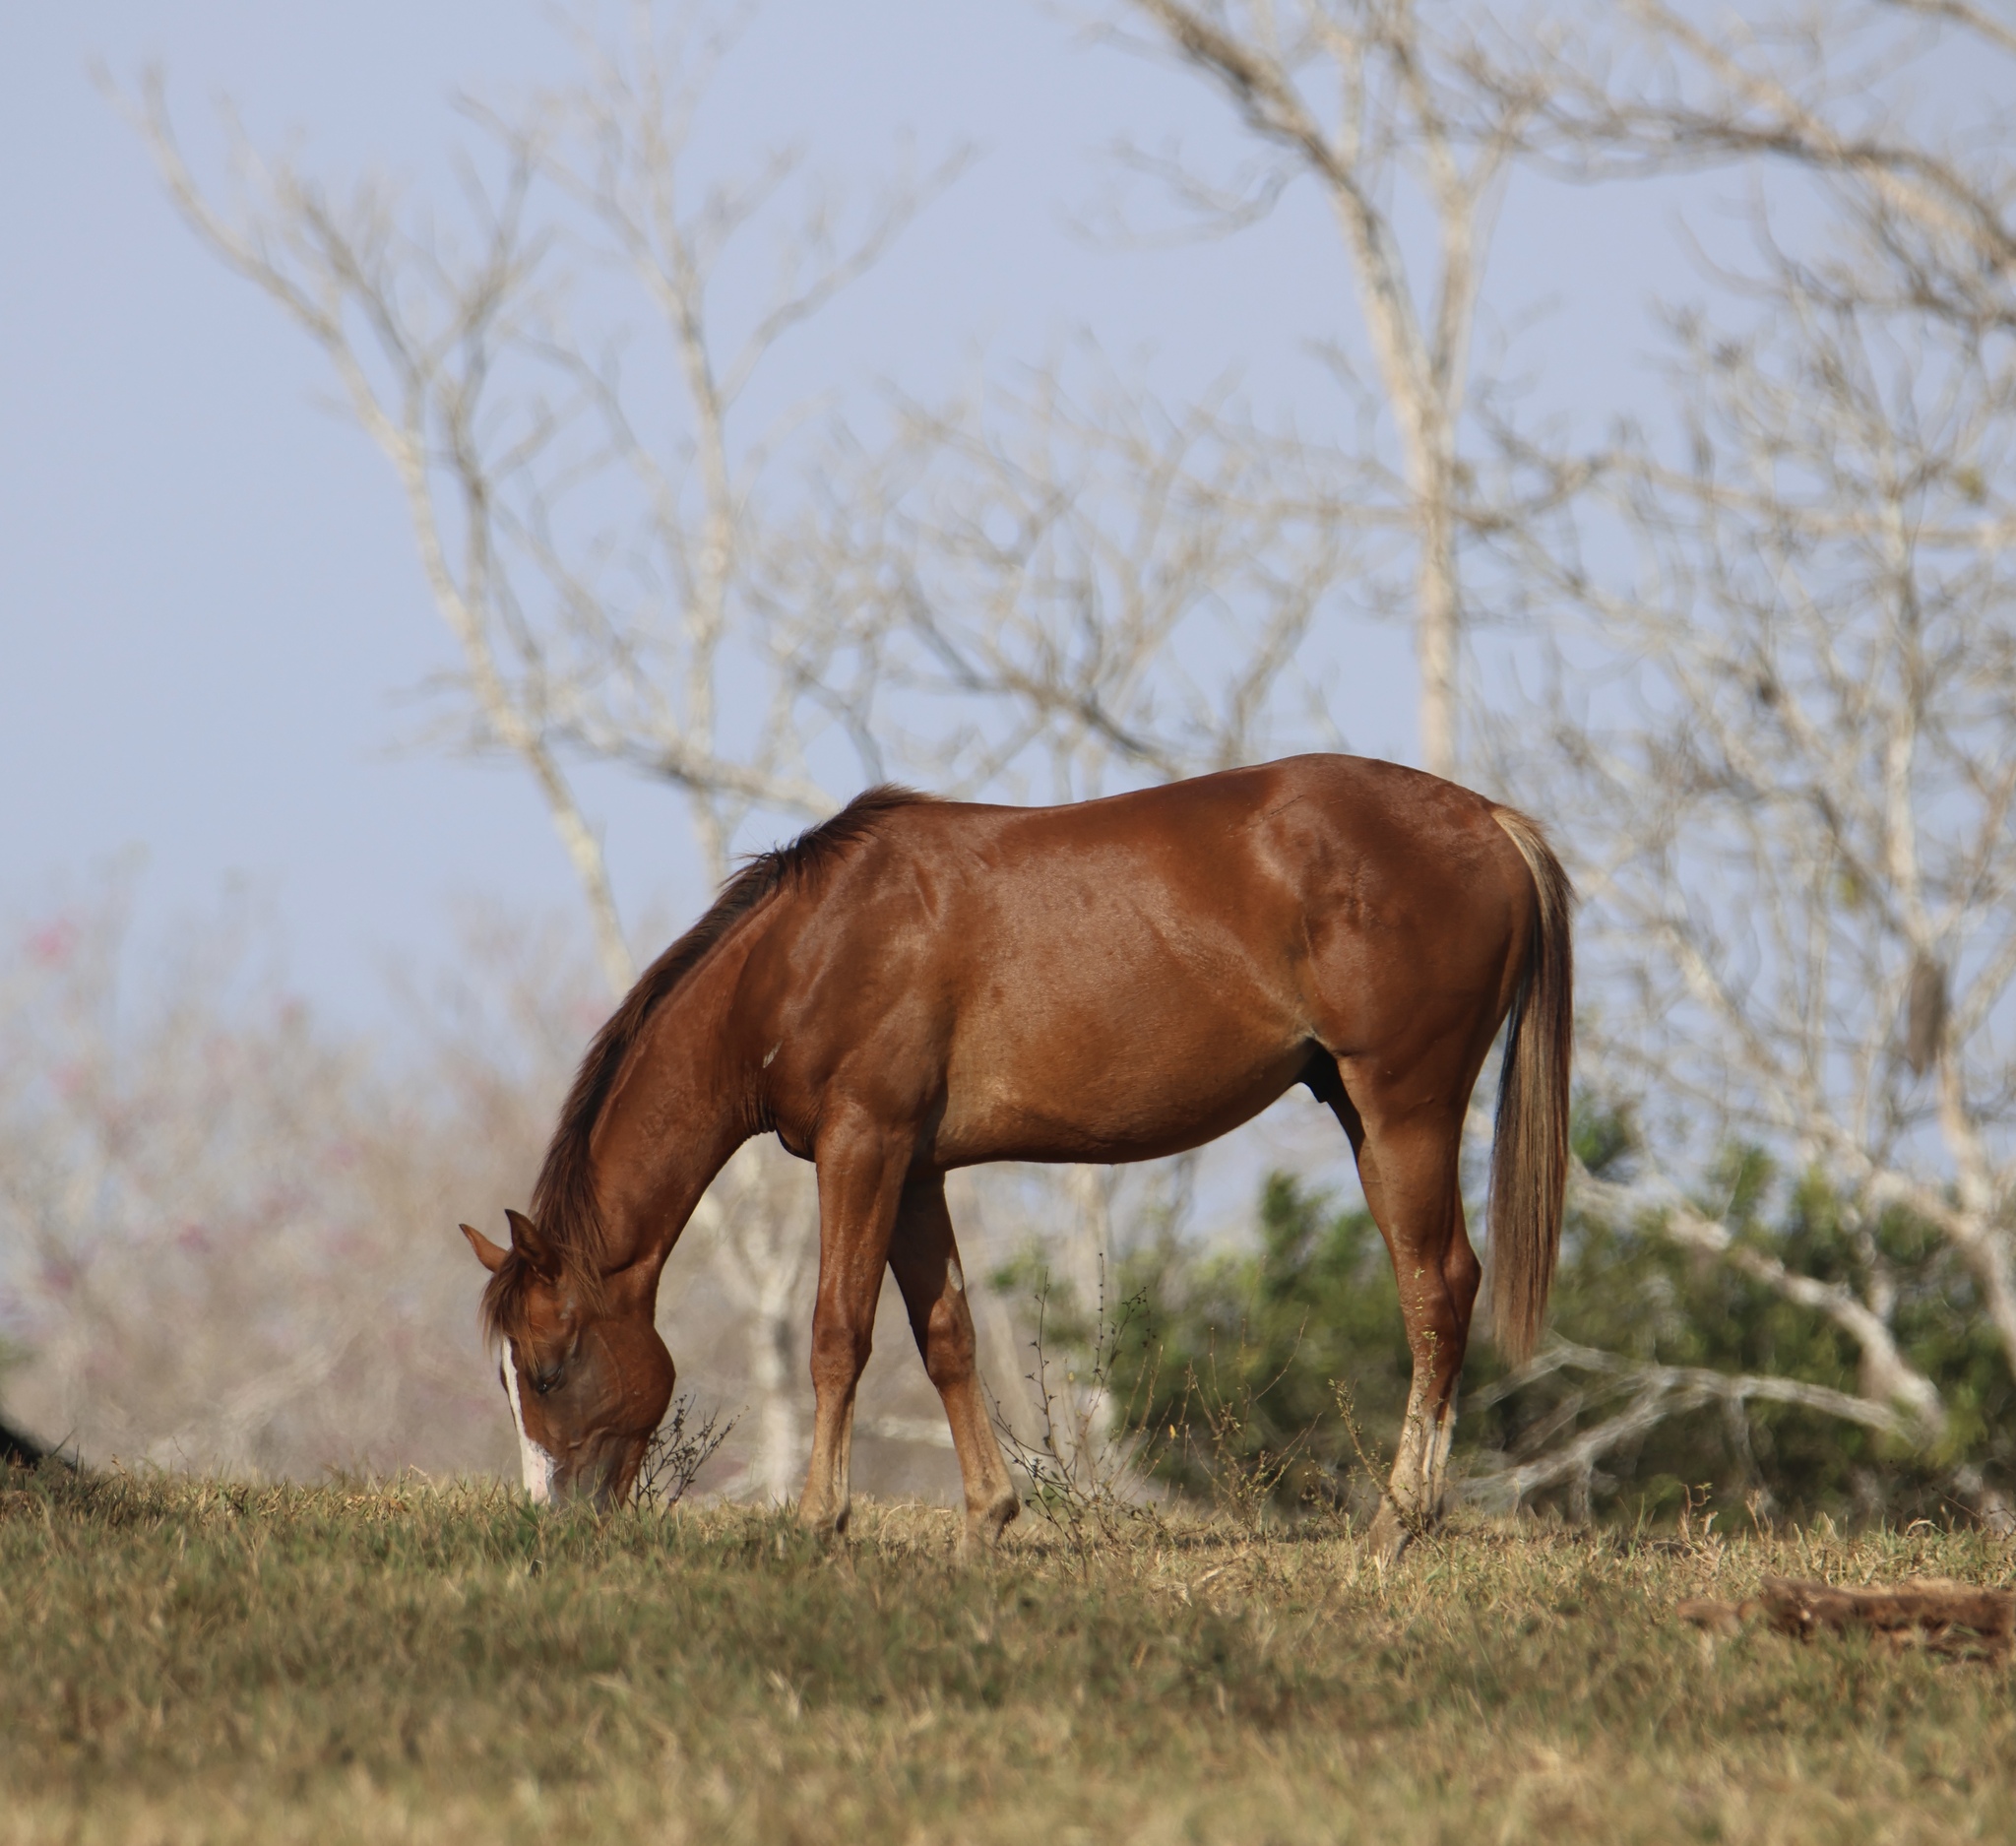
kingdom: Animalia
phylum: Chordata
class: Mammalia
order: Perissodactyla
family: Equidae
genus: Equus
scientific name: Equus caballus
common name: Horse
